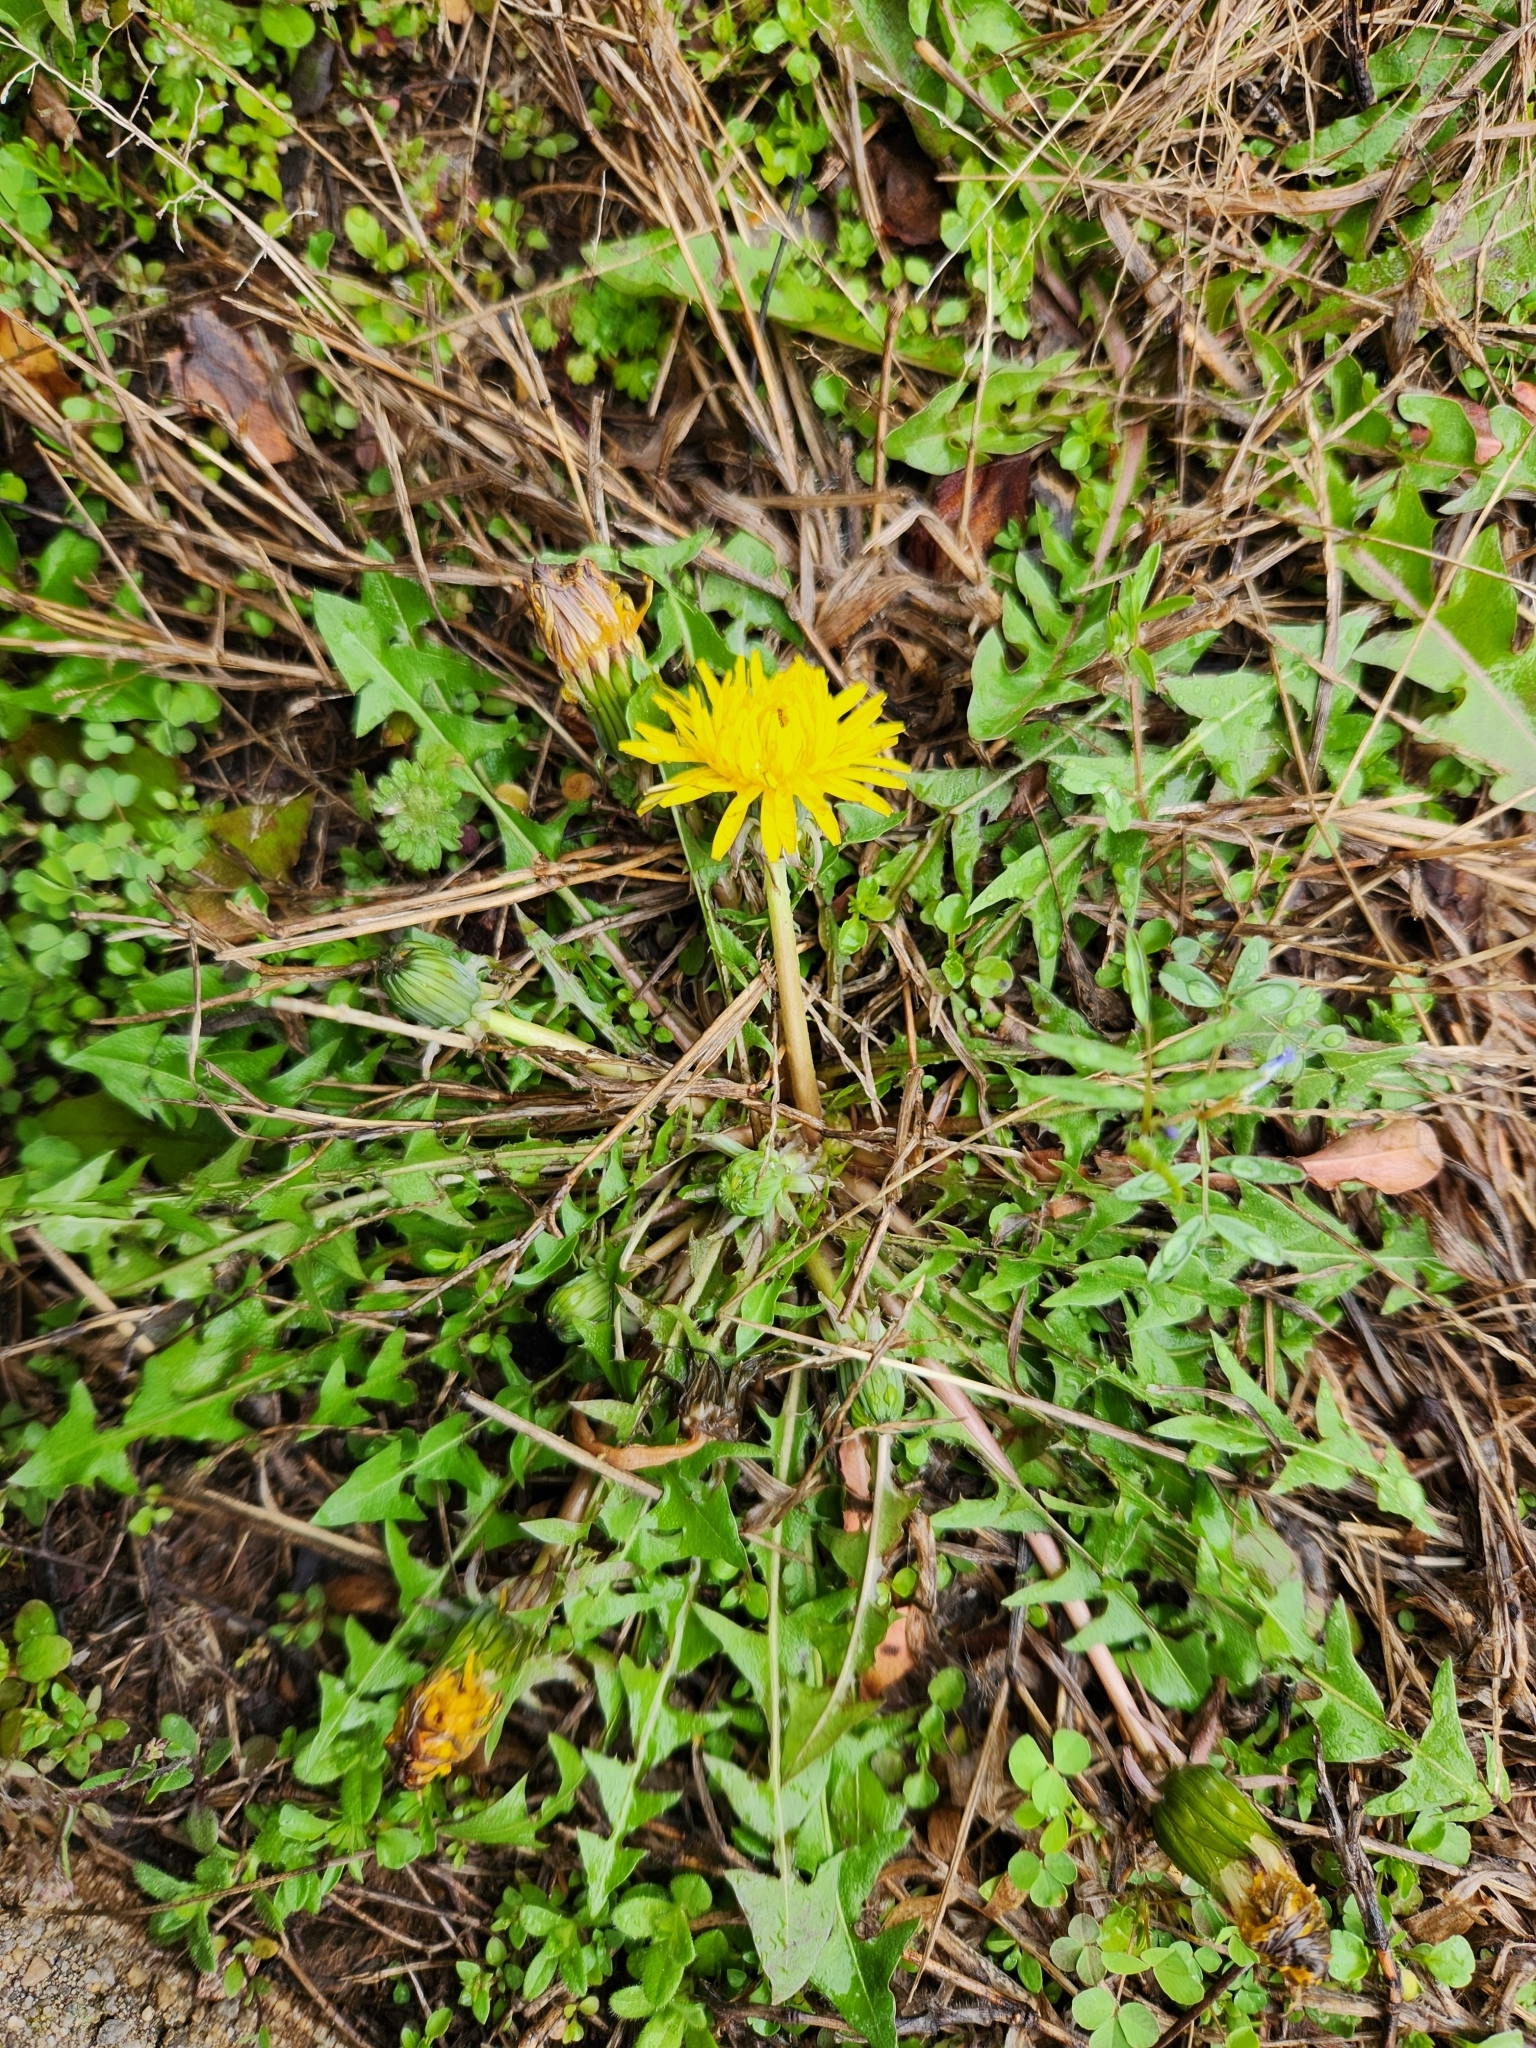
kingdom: Plantae
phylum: Tracheophyta
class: Magnoliopsida
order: Asterales
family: Asteraceae
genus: Taraxacum
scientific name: Taraxacum officinale
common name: Common dandelion
